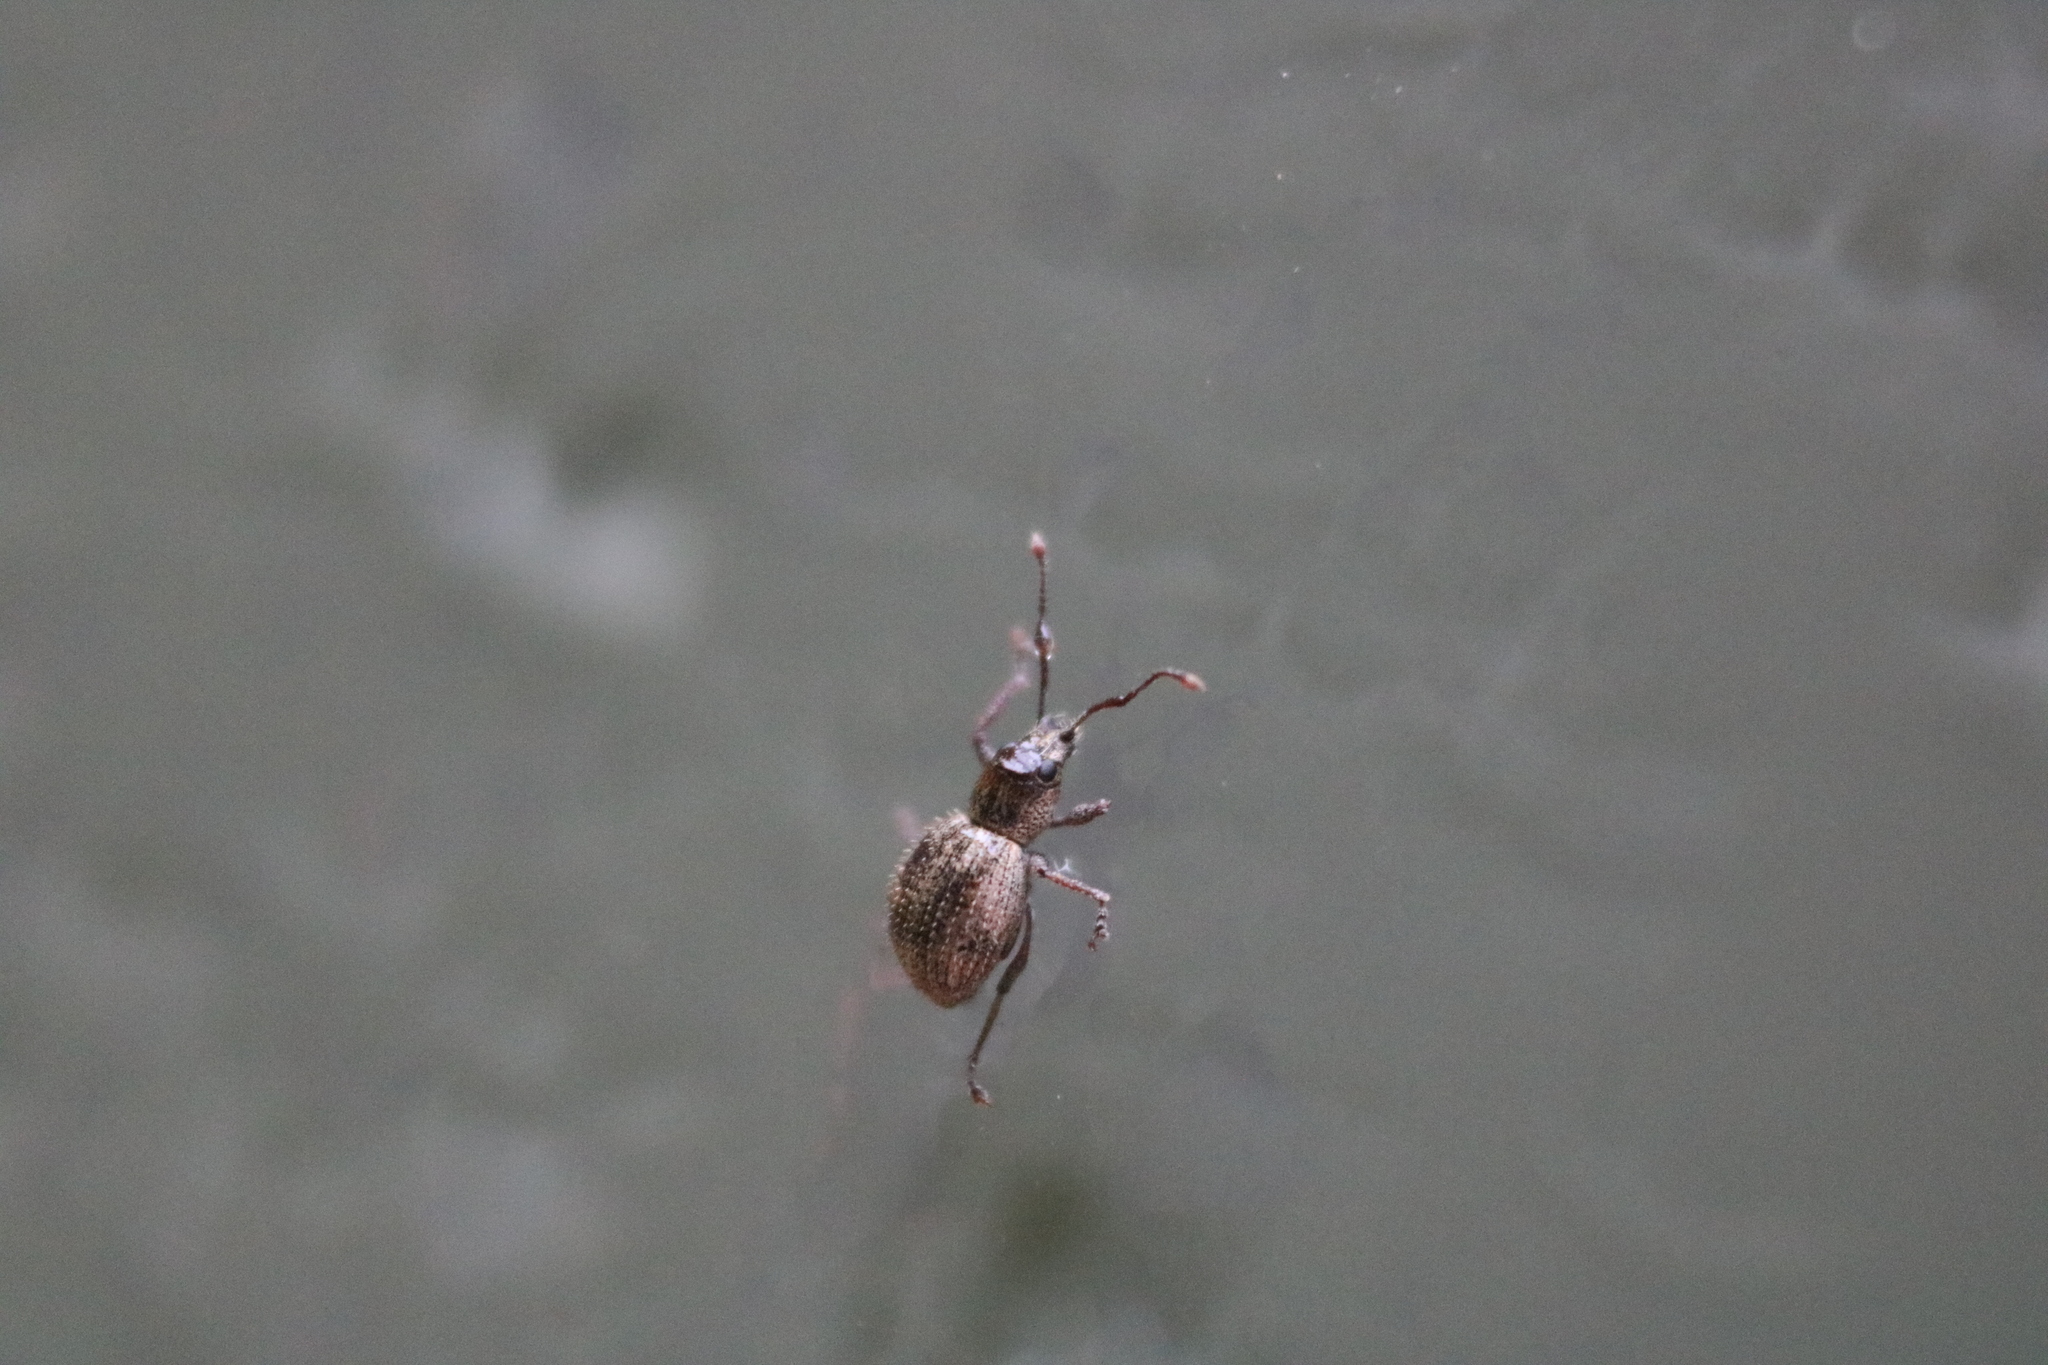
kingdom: Animalia
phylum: Arthropoda
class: Insecta
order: Coleoptera
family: Curculionidae
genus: Calomycterus
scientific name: Calomycterus setarius
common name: Weevil
